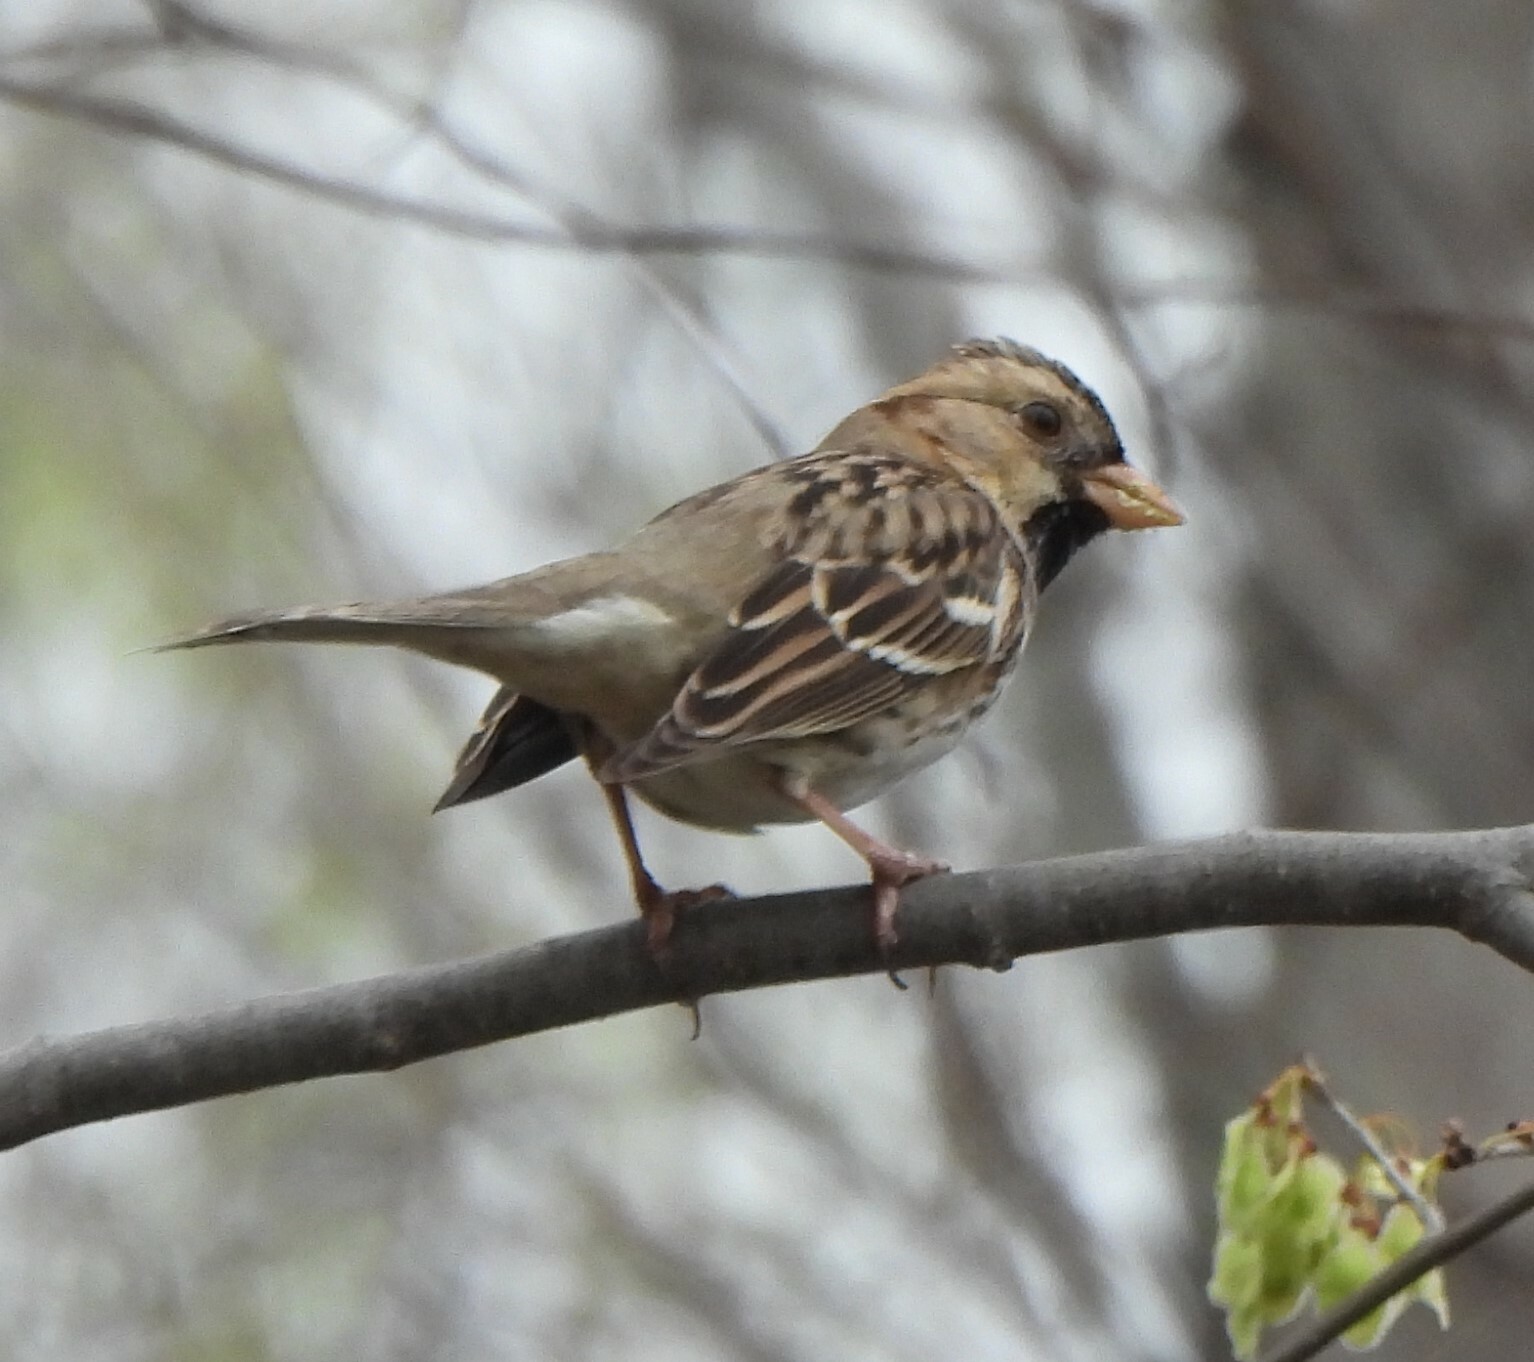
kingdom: Animalia
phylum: Chordata
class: Aves
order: Passeriformes
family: Passerellidae
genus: Zonotrichia
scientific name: Zonotrichia querula
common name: Harris's sparrow
